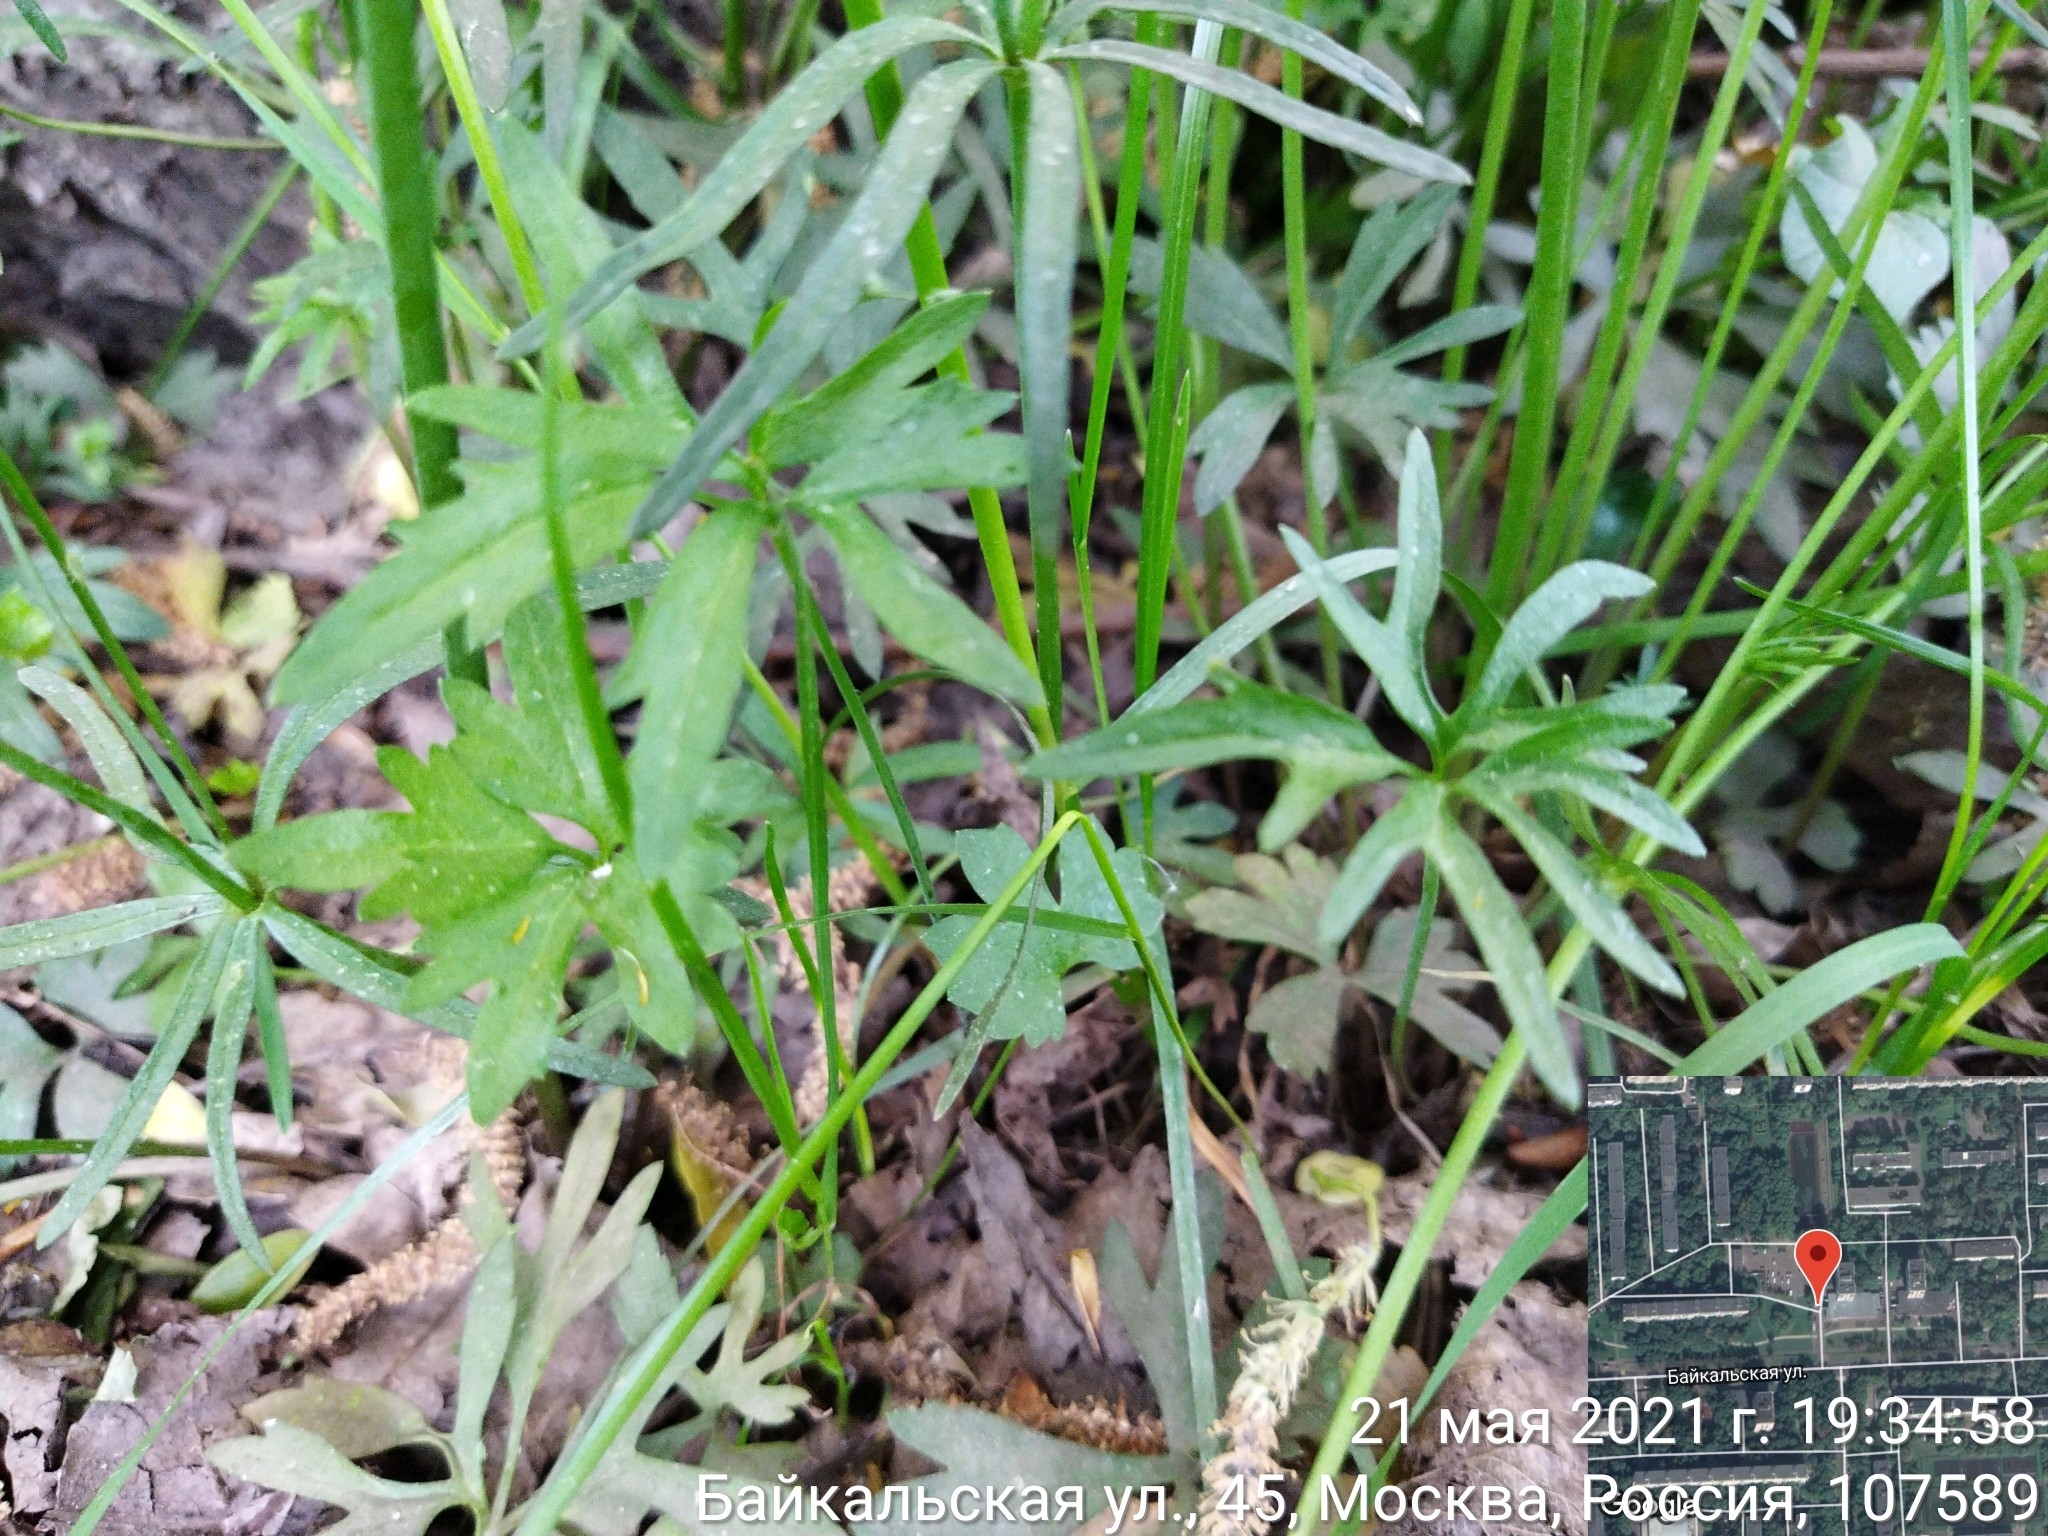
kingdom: Plantae
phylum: Tracheophyta
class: Magnoliopsida
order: Ranunculales
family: Ranunculaceae
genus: Ranunculus
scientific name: Ranunculus auricomus
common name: Goldilocks buttercup
